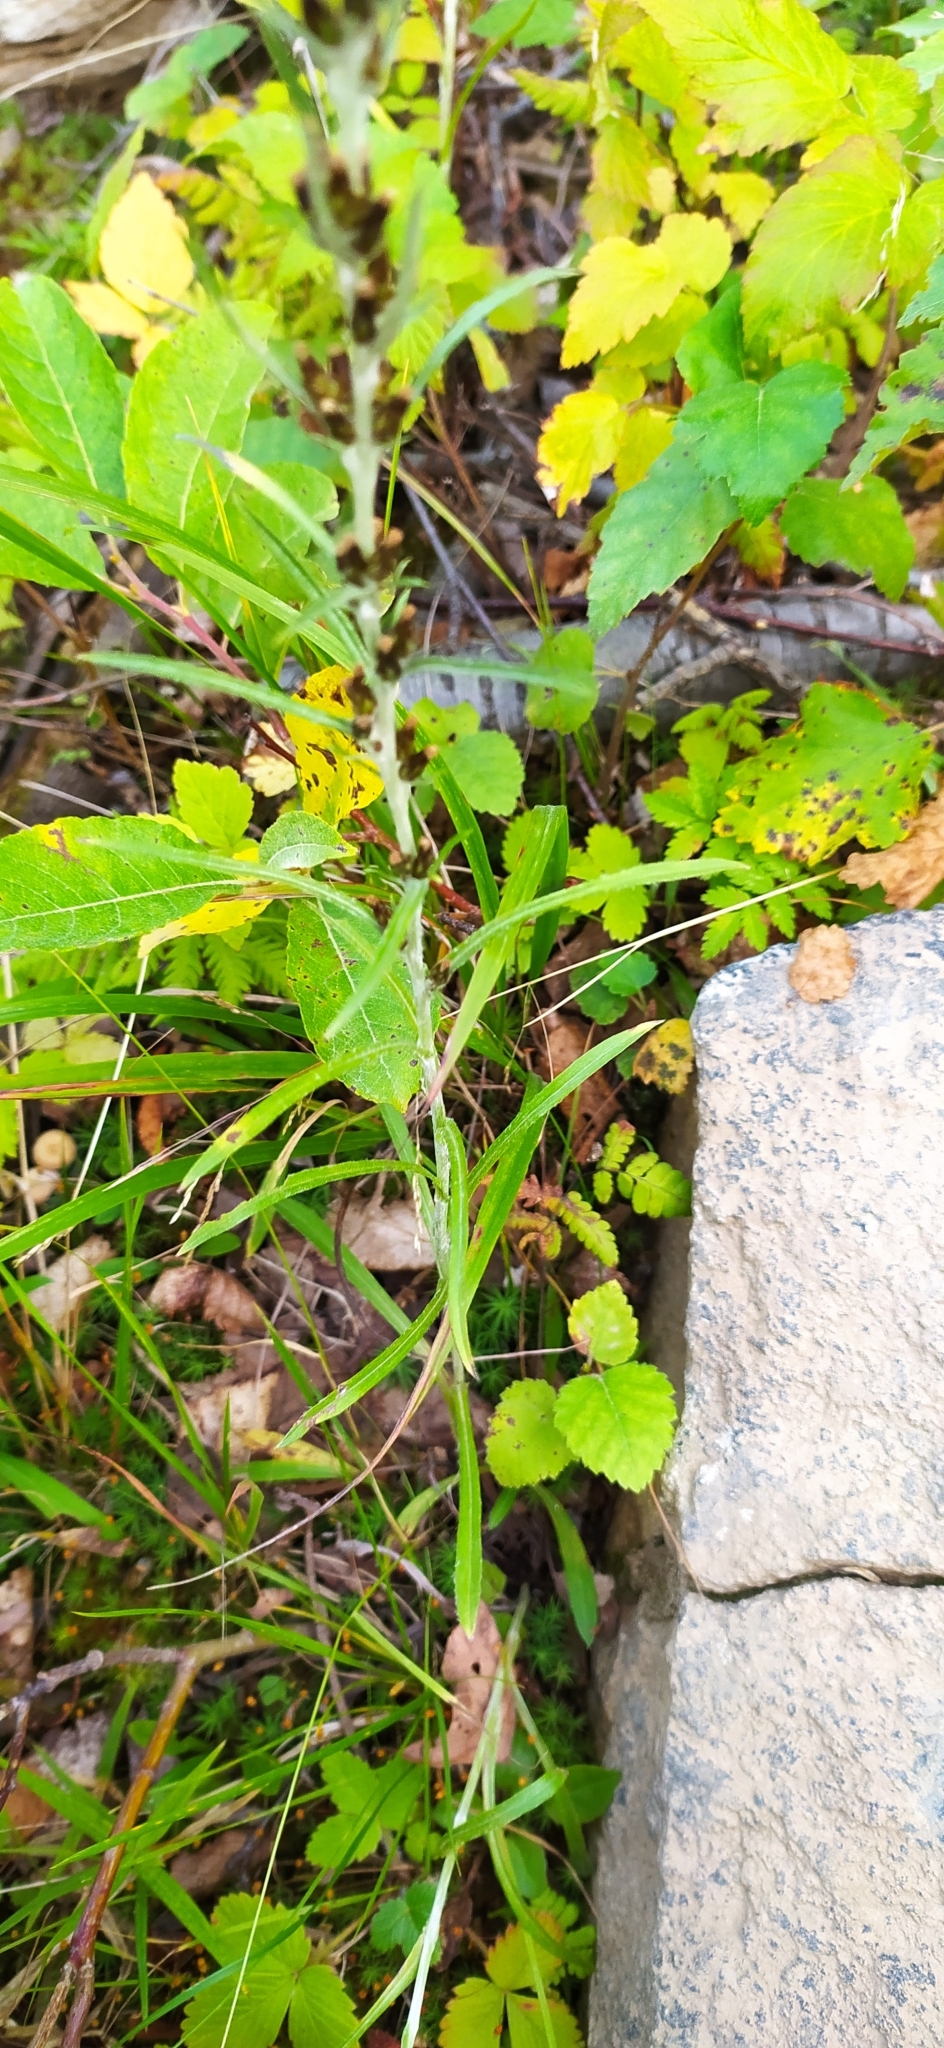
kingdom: Plantae
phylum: Tracheophyta
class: Magnoliopsida
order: Asterales
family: Asteraceae
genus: Omalotheca
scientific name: Omalotheca sylvatica
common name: Heath cudweed
